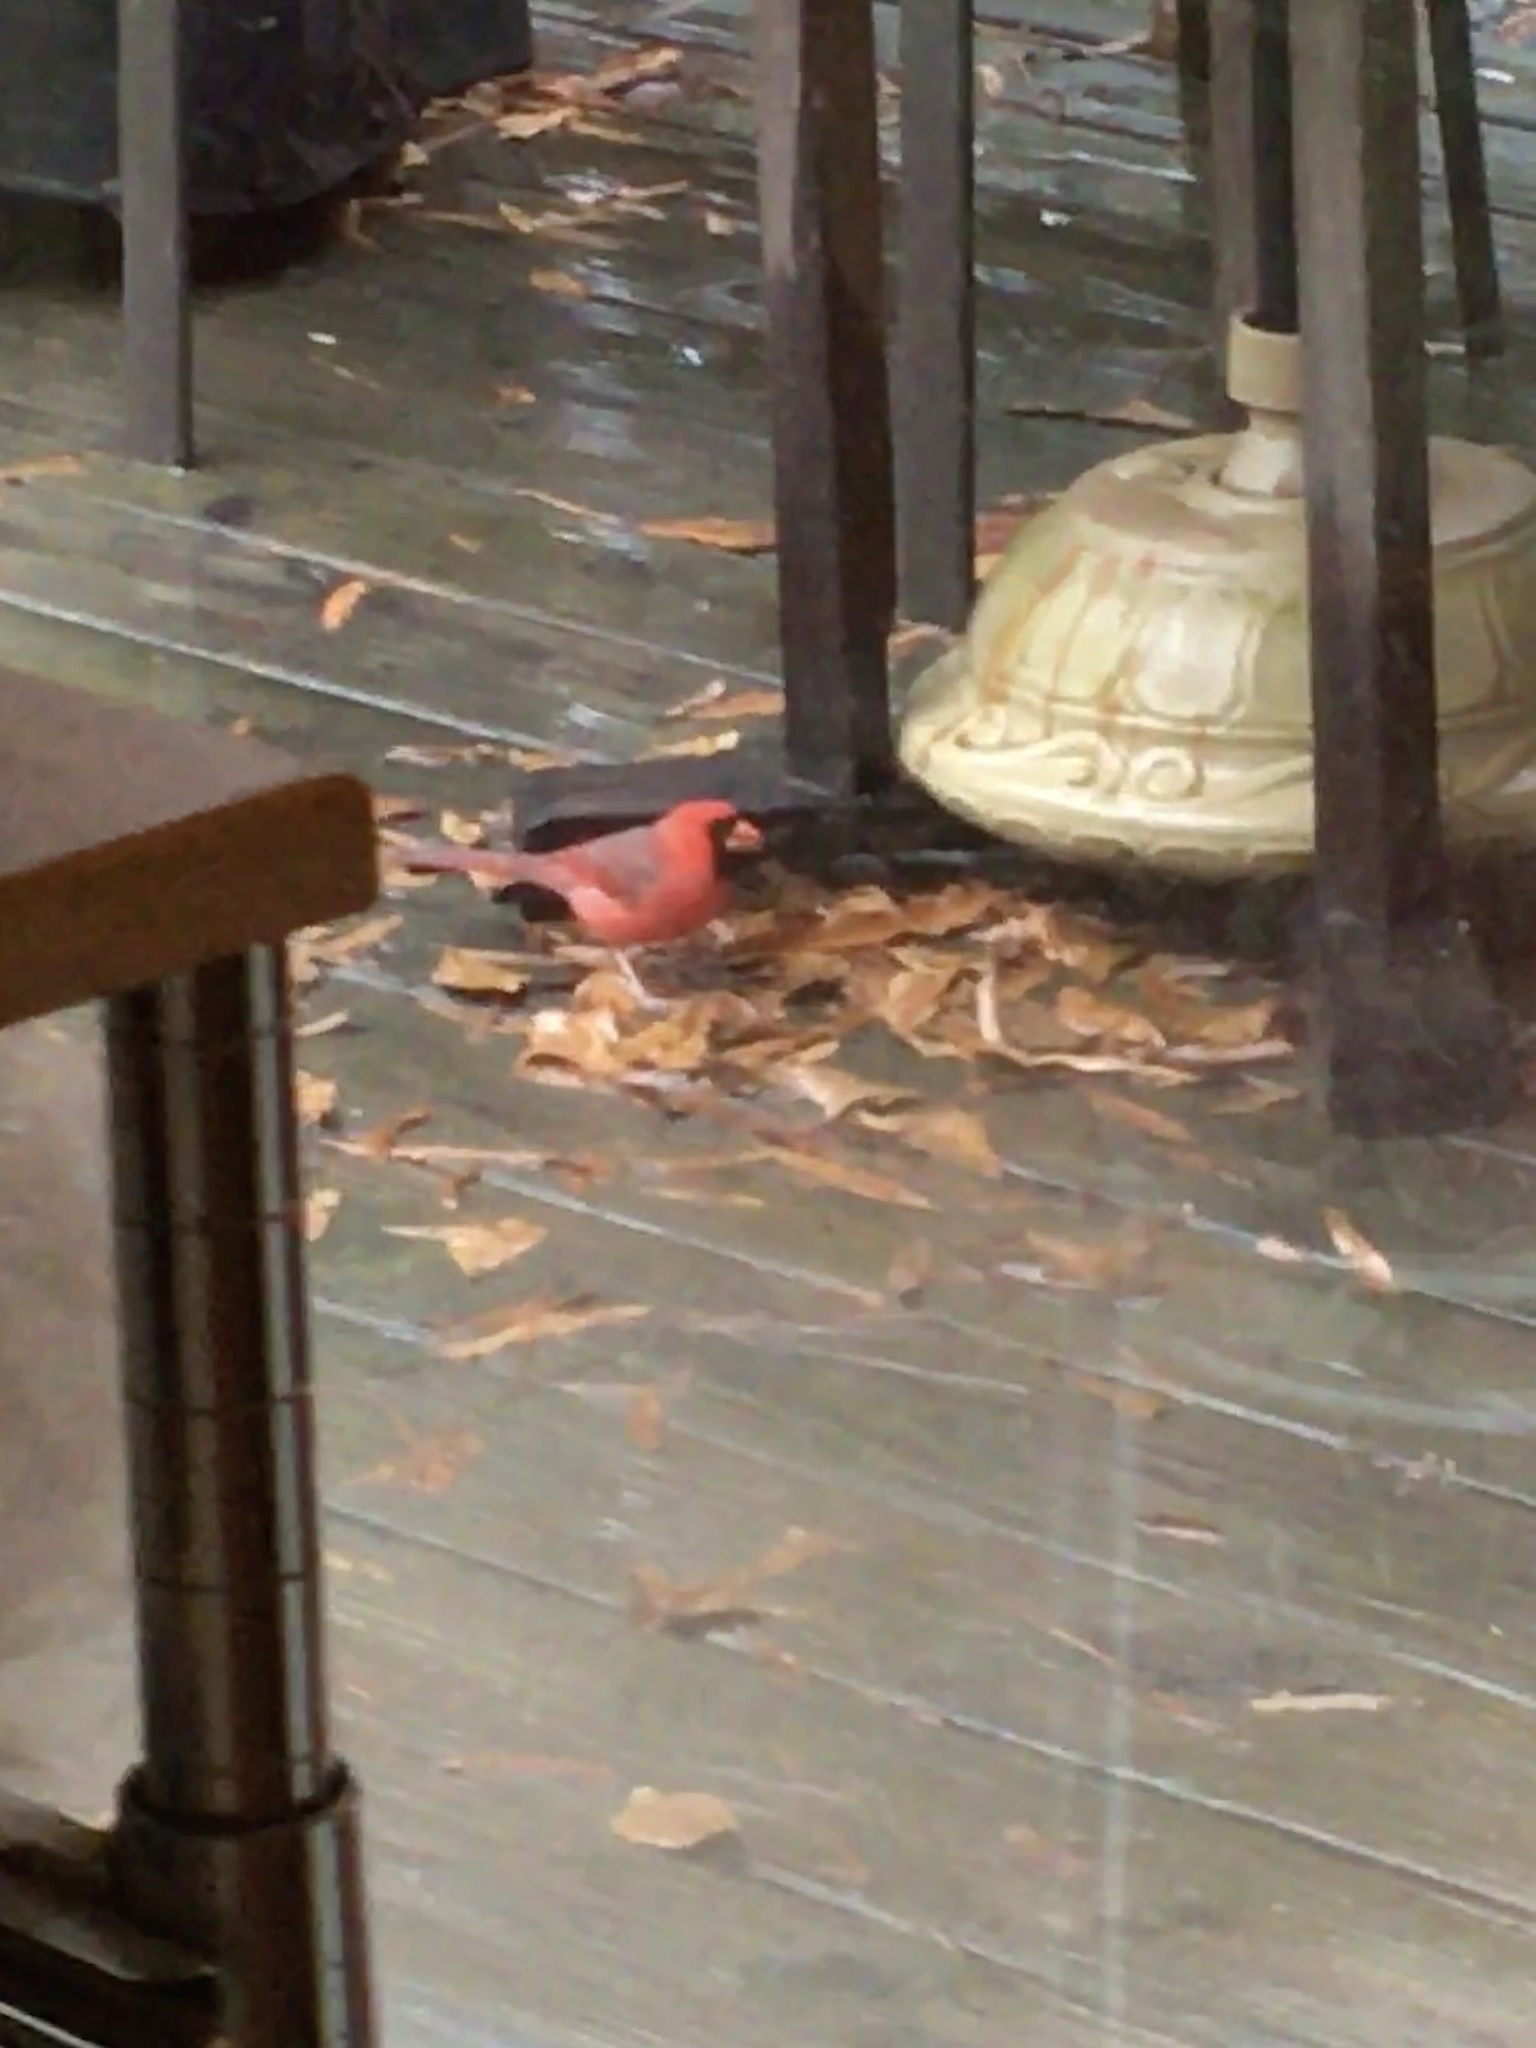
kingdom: Animalia
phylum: Chordata
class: Aves
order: Passeriformes
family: Cardinalidae
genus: Cardinalis
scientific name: Cardinalis cardinalis
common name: Northern cardinal
